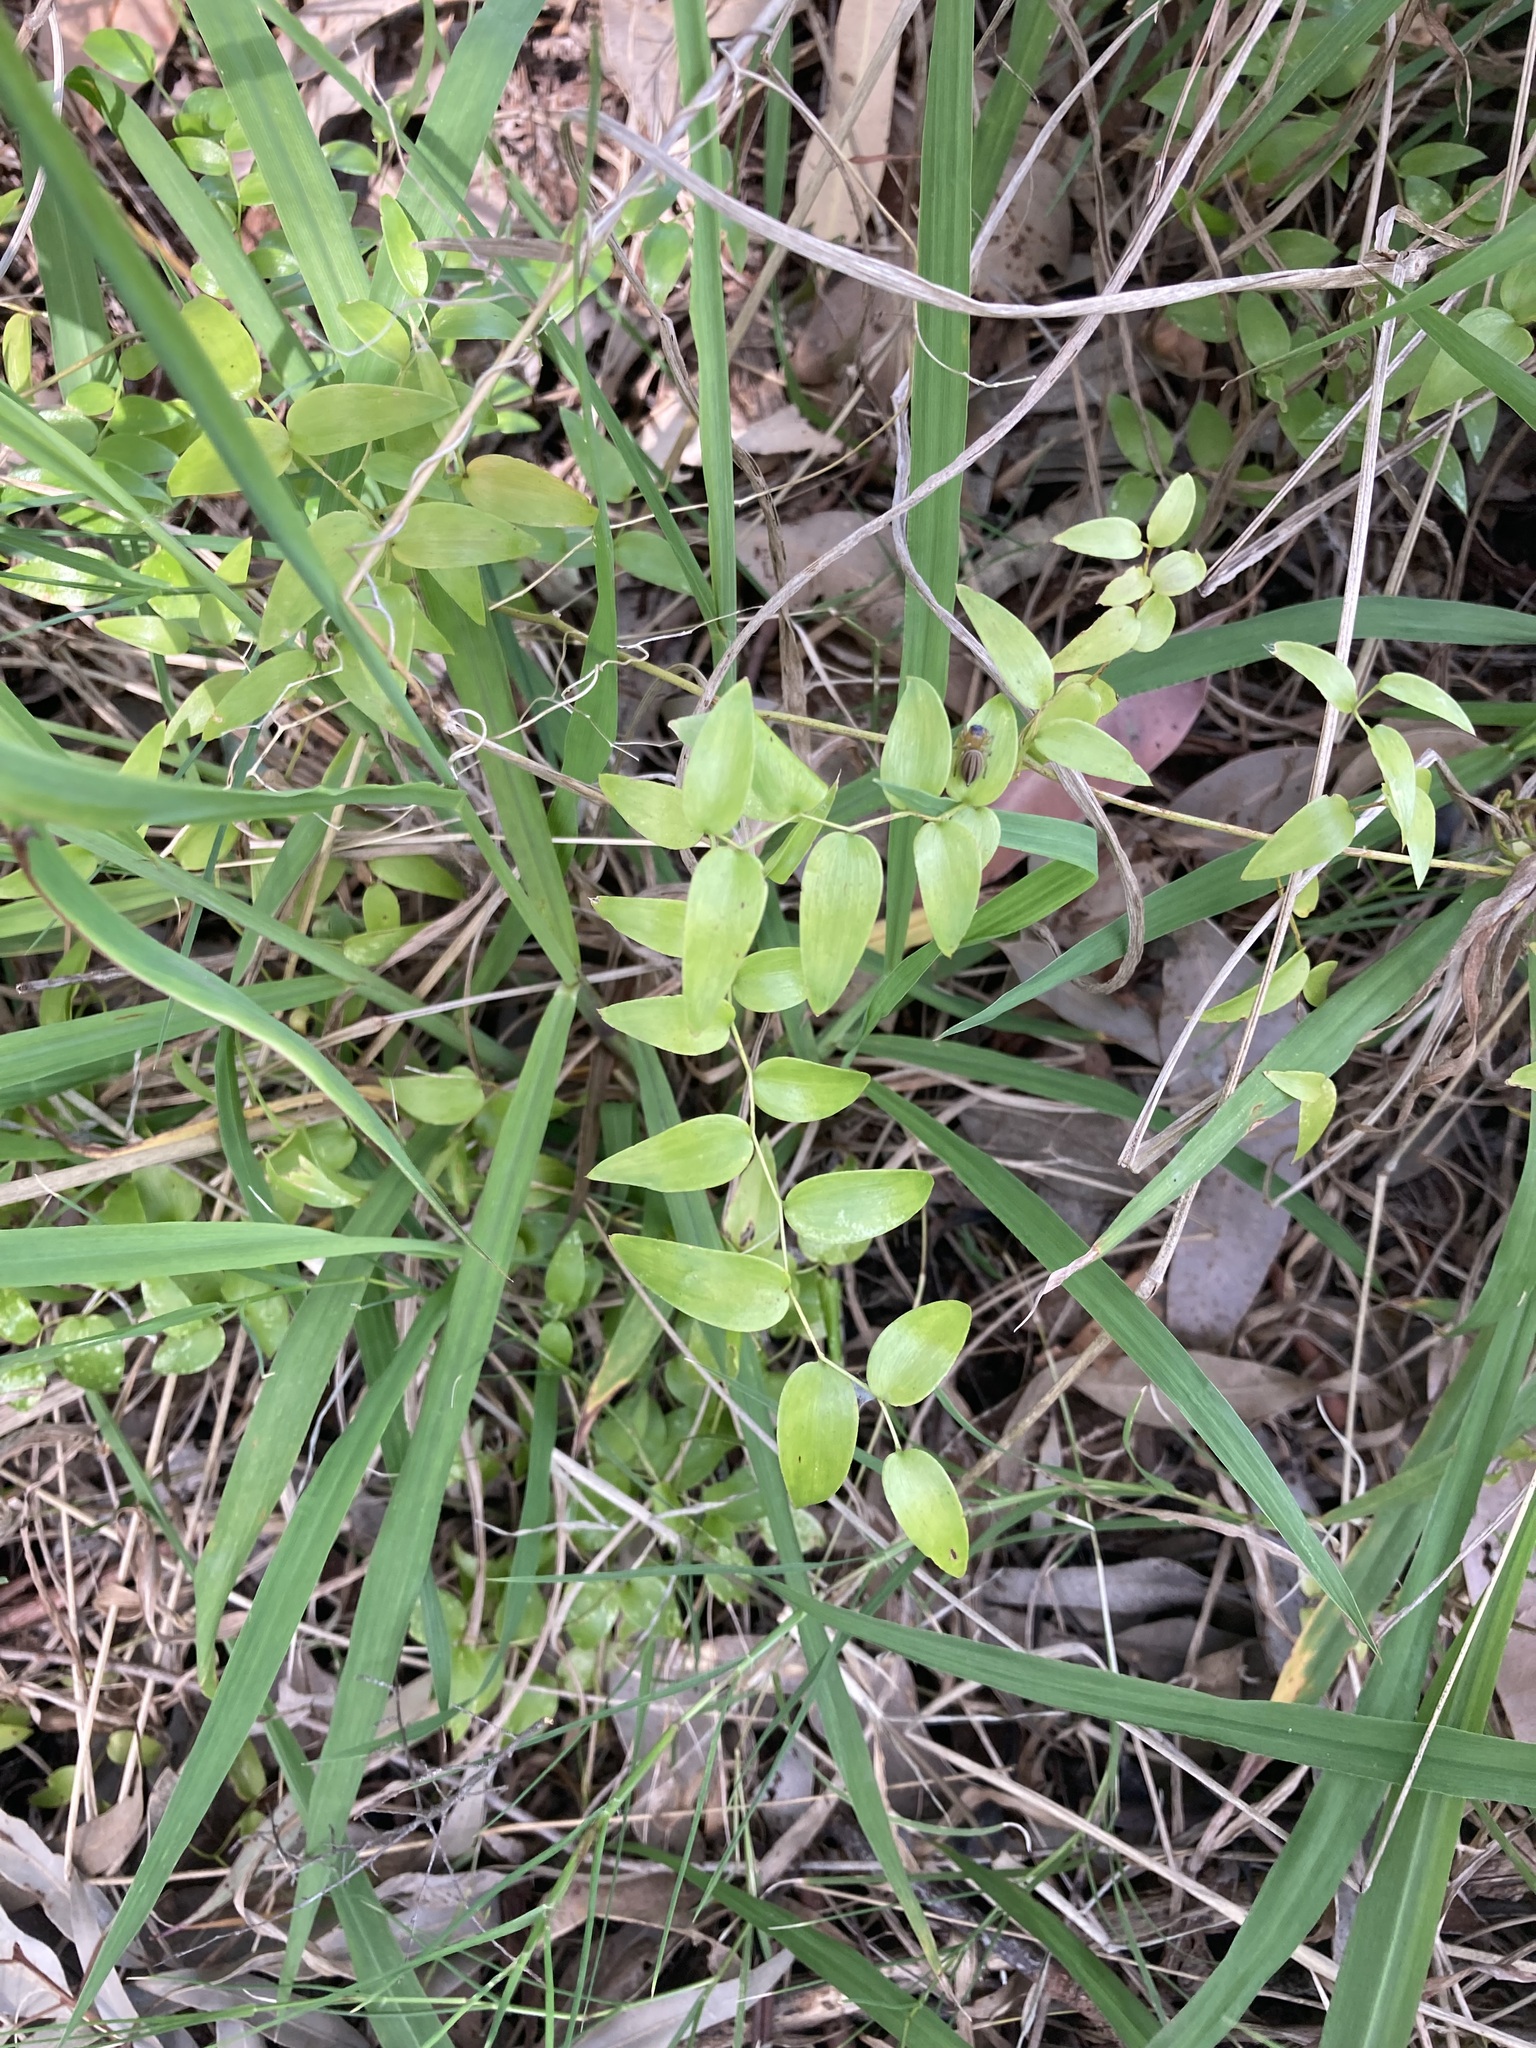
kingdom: Plantae
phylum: Tracheophyta
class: Liliopsida
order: Asparagales
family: Asparagaceae
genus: Asparagus
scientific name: Asparagus asparagoides
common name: African asparagus fern
